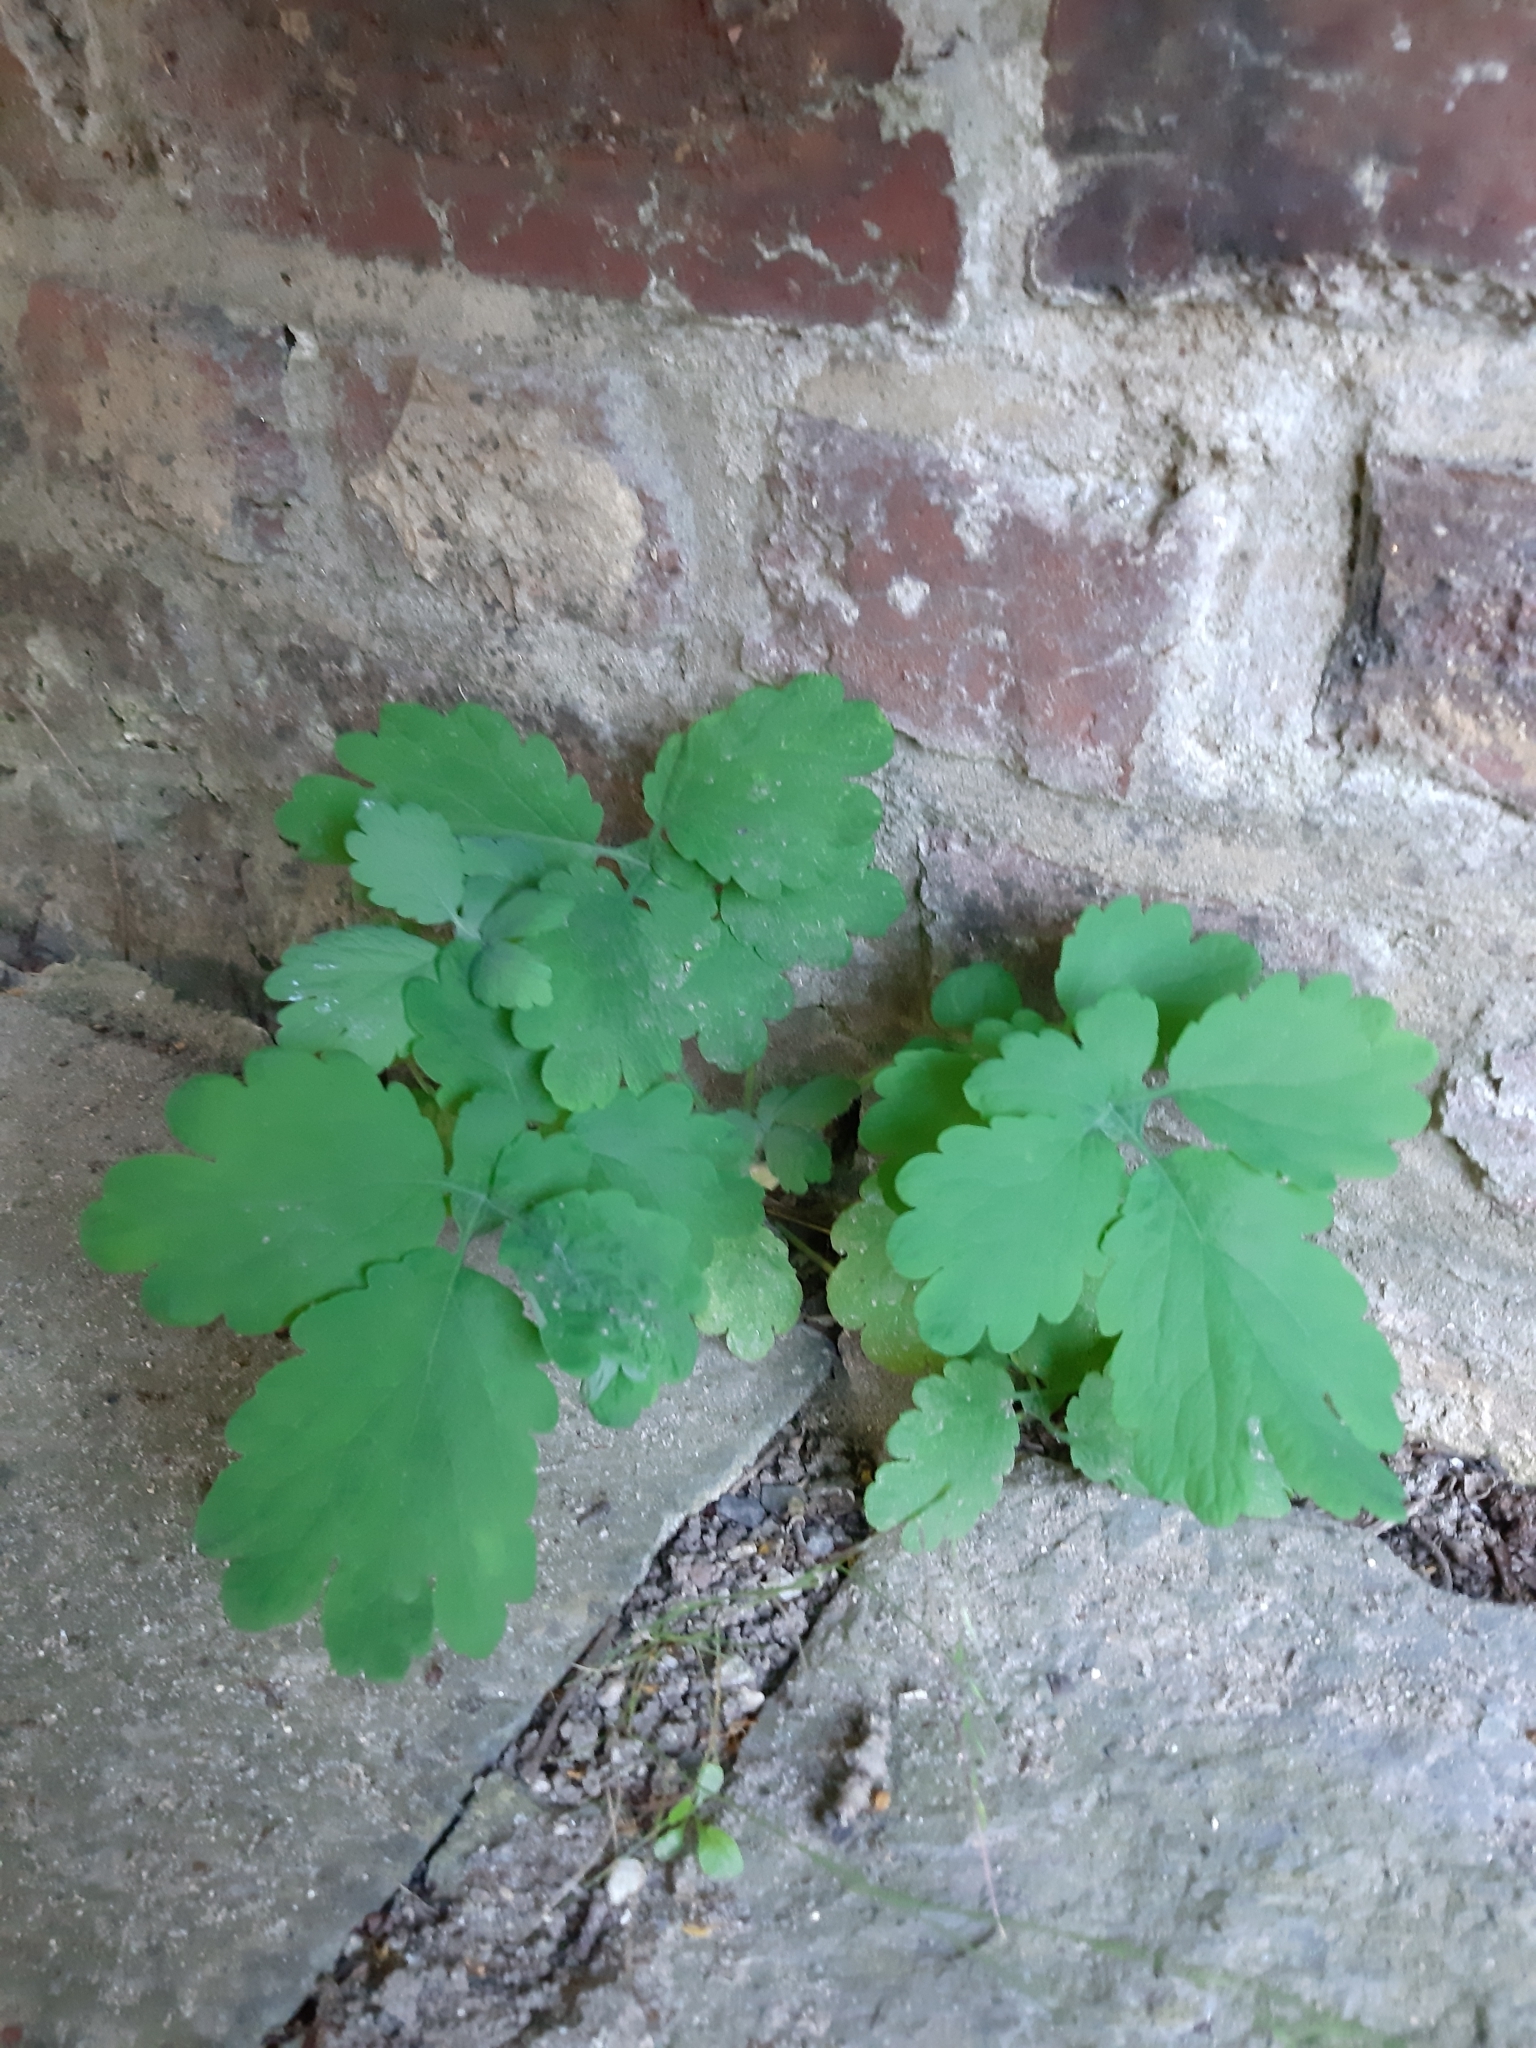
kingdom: Plantae
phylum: Tracheophyta
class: Magnoliopsida
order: Ranunculales
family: Papaveraceae
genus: Chelidonium
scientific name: Chelidonium majus
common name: Greater celandine
